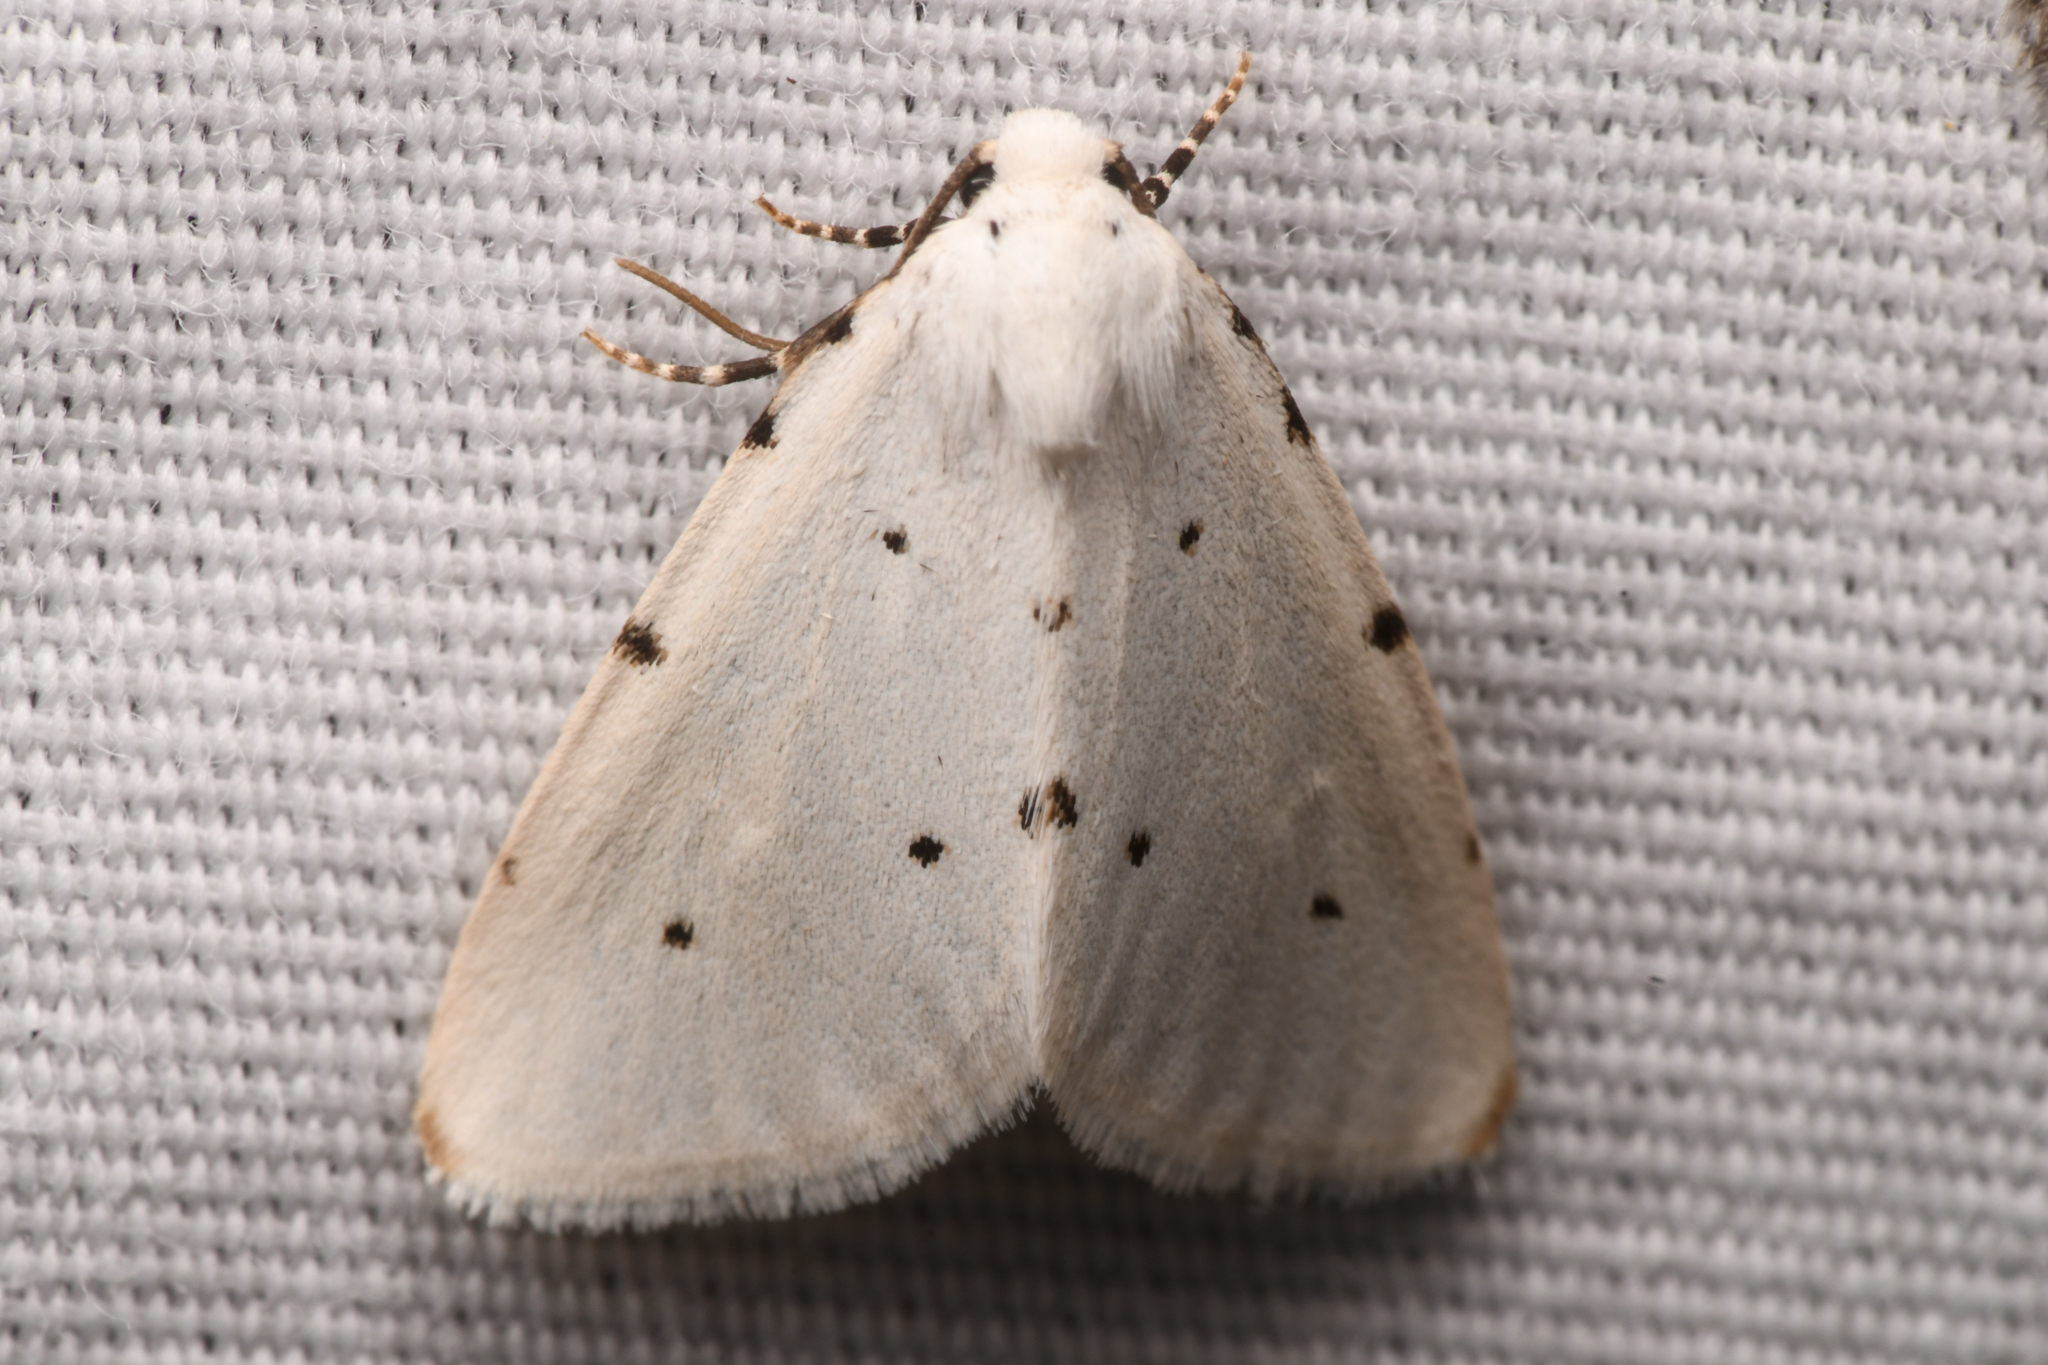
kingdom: Animalia
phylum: Arthropoda
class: Insecta
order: Lepidoptera
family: Noctuidae
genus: Grotellaforma
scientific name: Grotellaforma lactea
